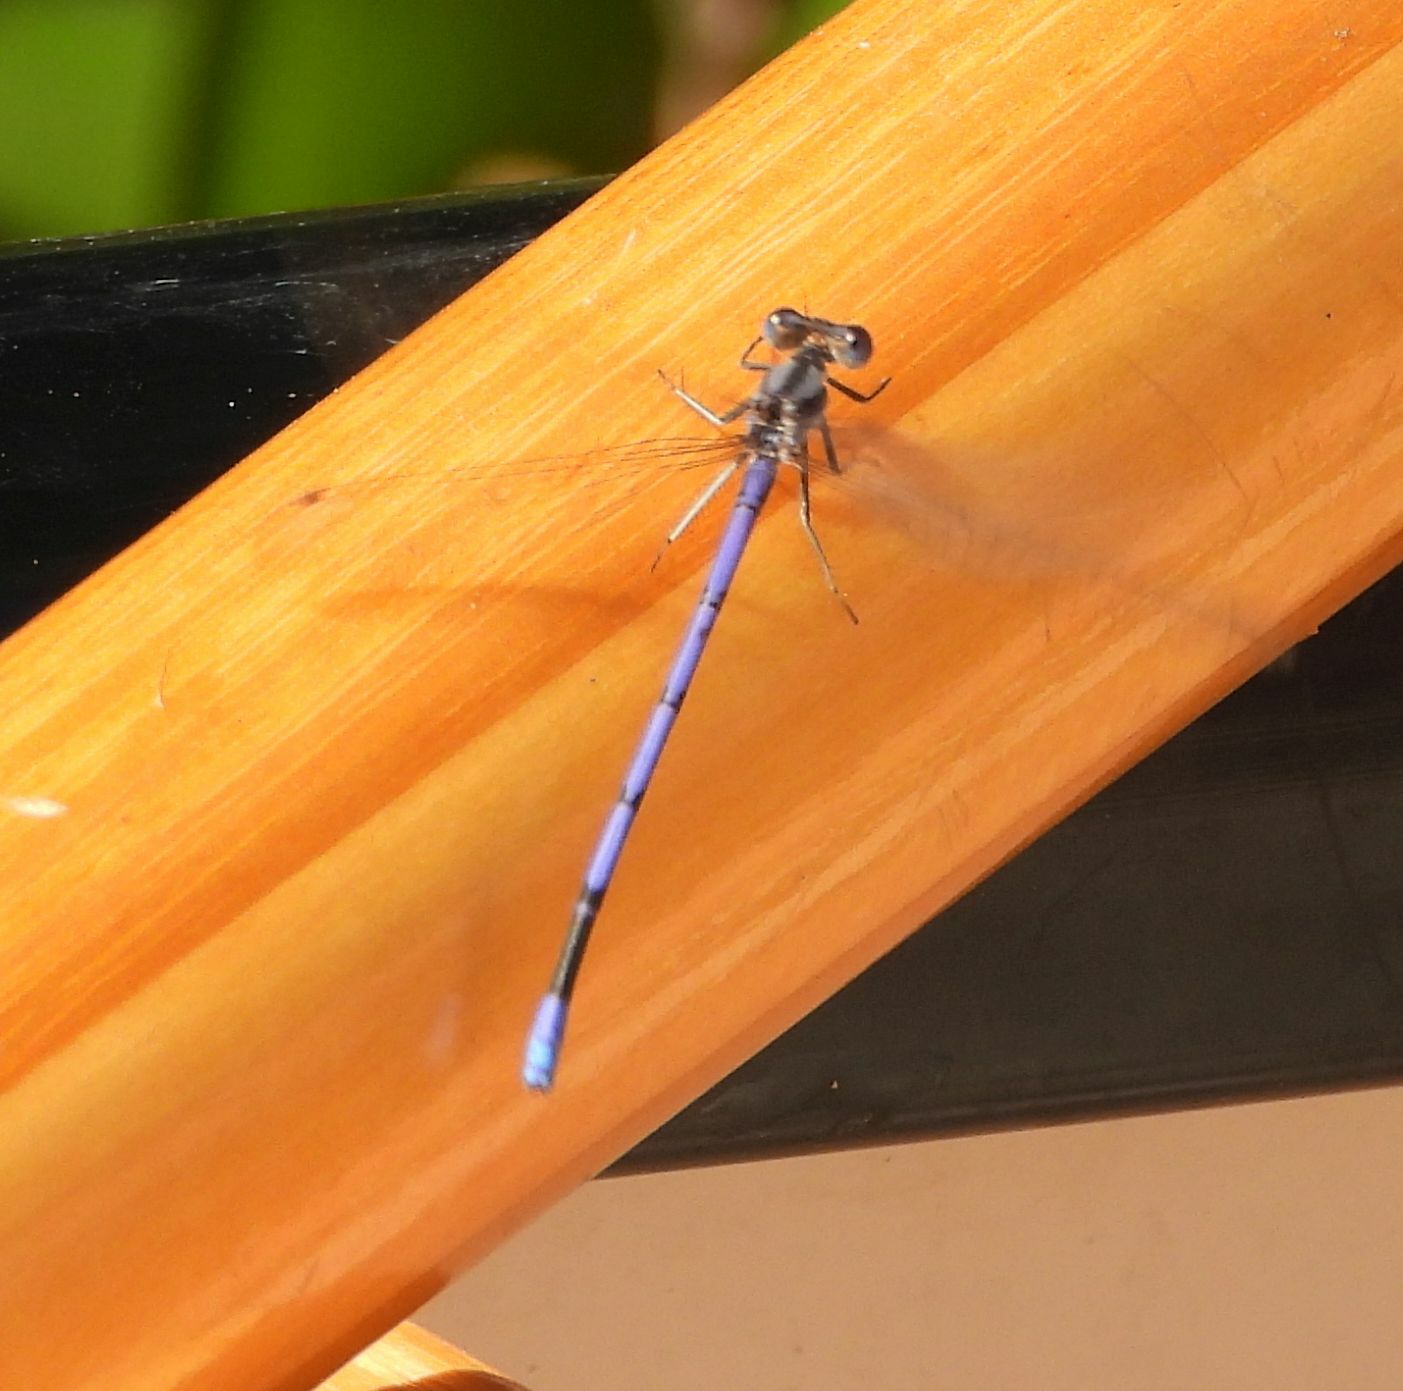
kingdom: Animalia
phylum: Arthropoda
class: Insecta
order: Odonata
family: Coenagrionidae
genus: Argia
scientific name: Argia fumipennis
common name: Variable dancer
